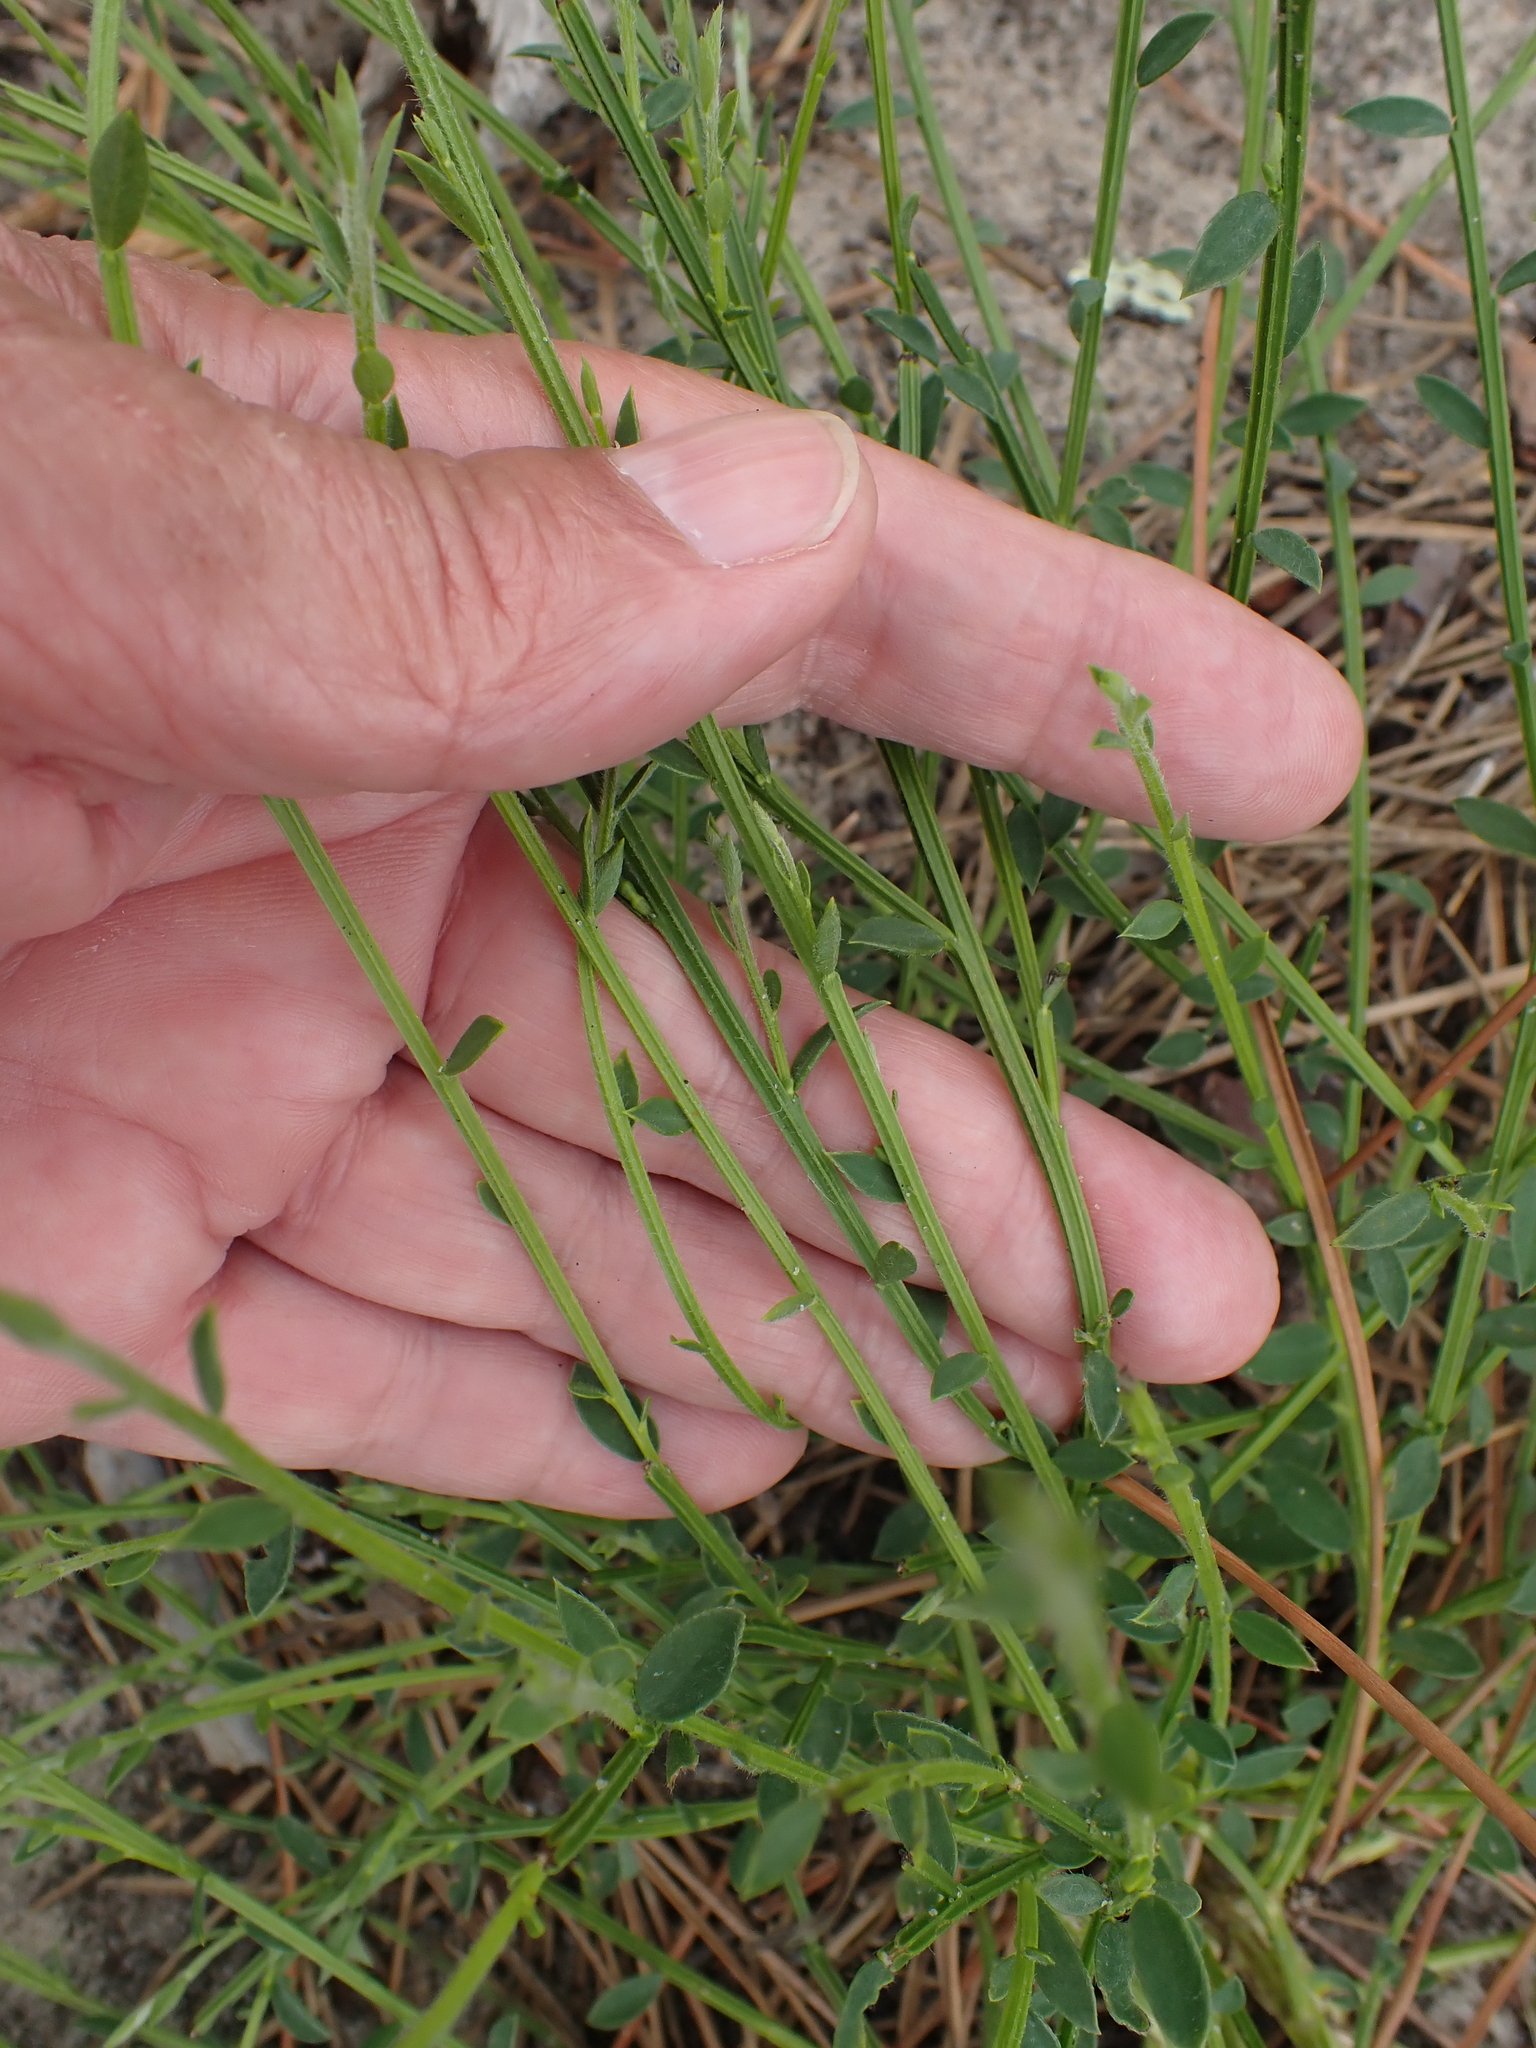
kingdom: Plantae
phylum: Tracheophyta
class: Magnoliopsida
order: Fabales
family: Fabaceae
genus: Cytisus
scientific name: Cytisus scoparius
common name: Scotch broom
